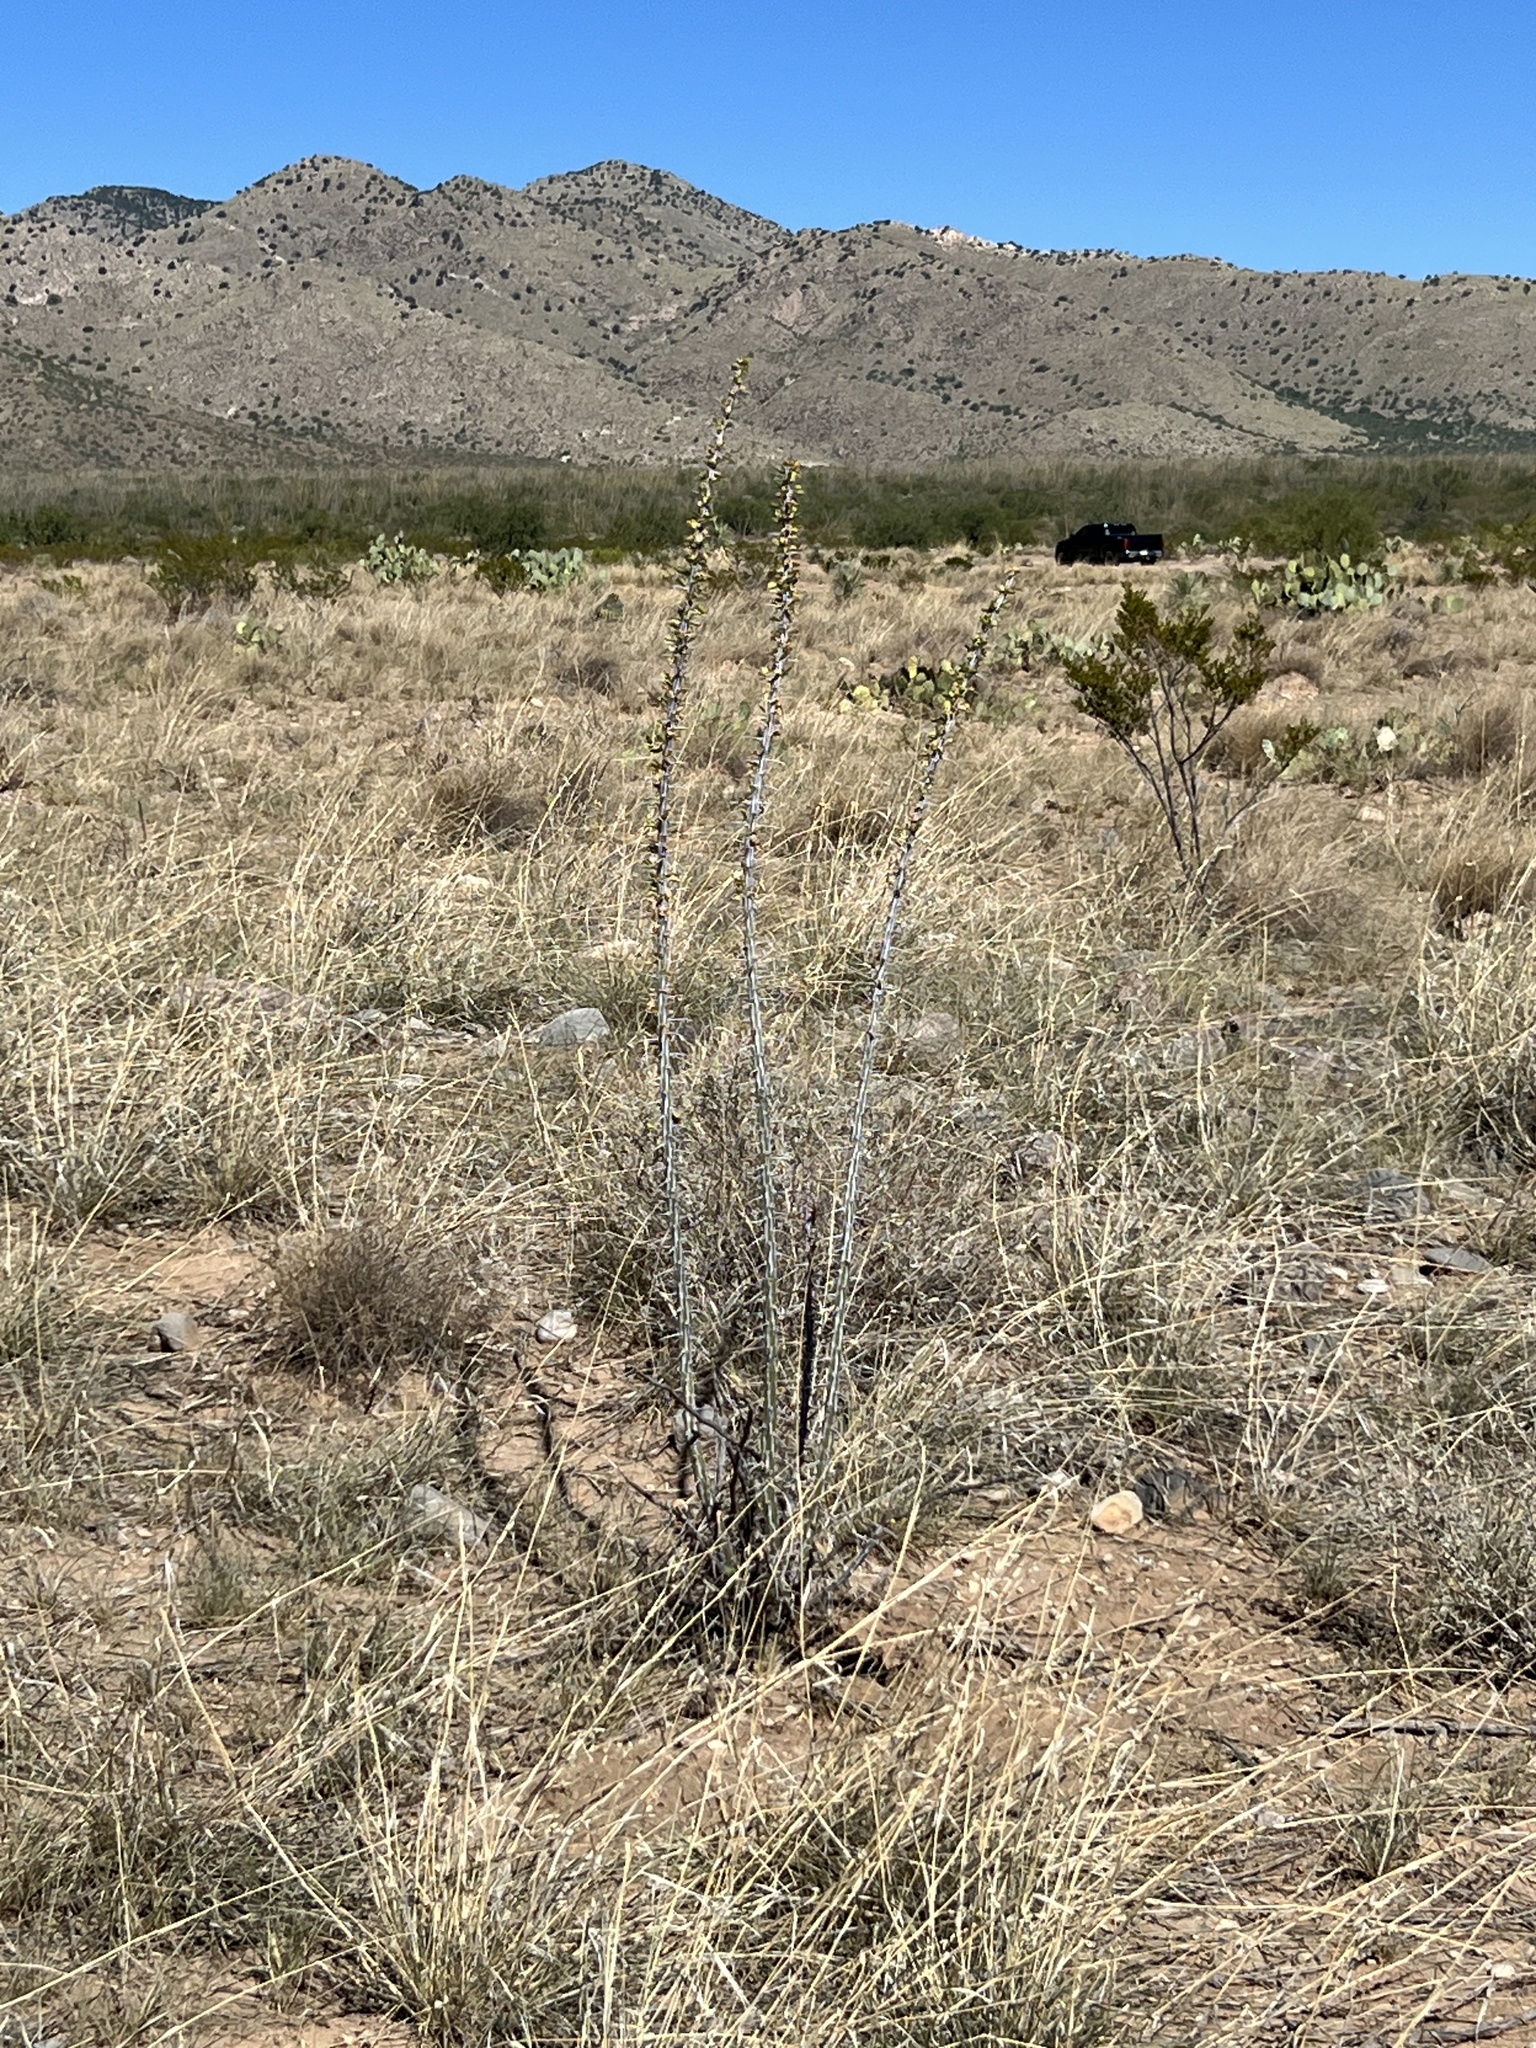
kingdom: Plantae
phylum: Tracheophyta
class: Magnoliopsida
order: Ericales
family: Fouquieriaceae
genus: Fouquieria
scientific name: Fouquieria splendens
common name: Vine-cactus
